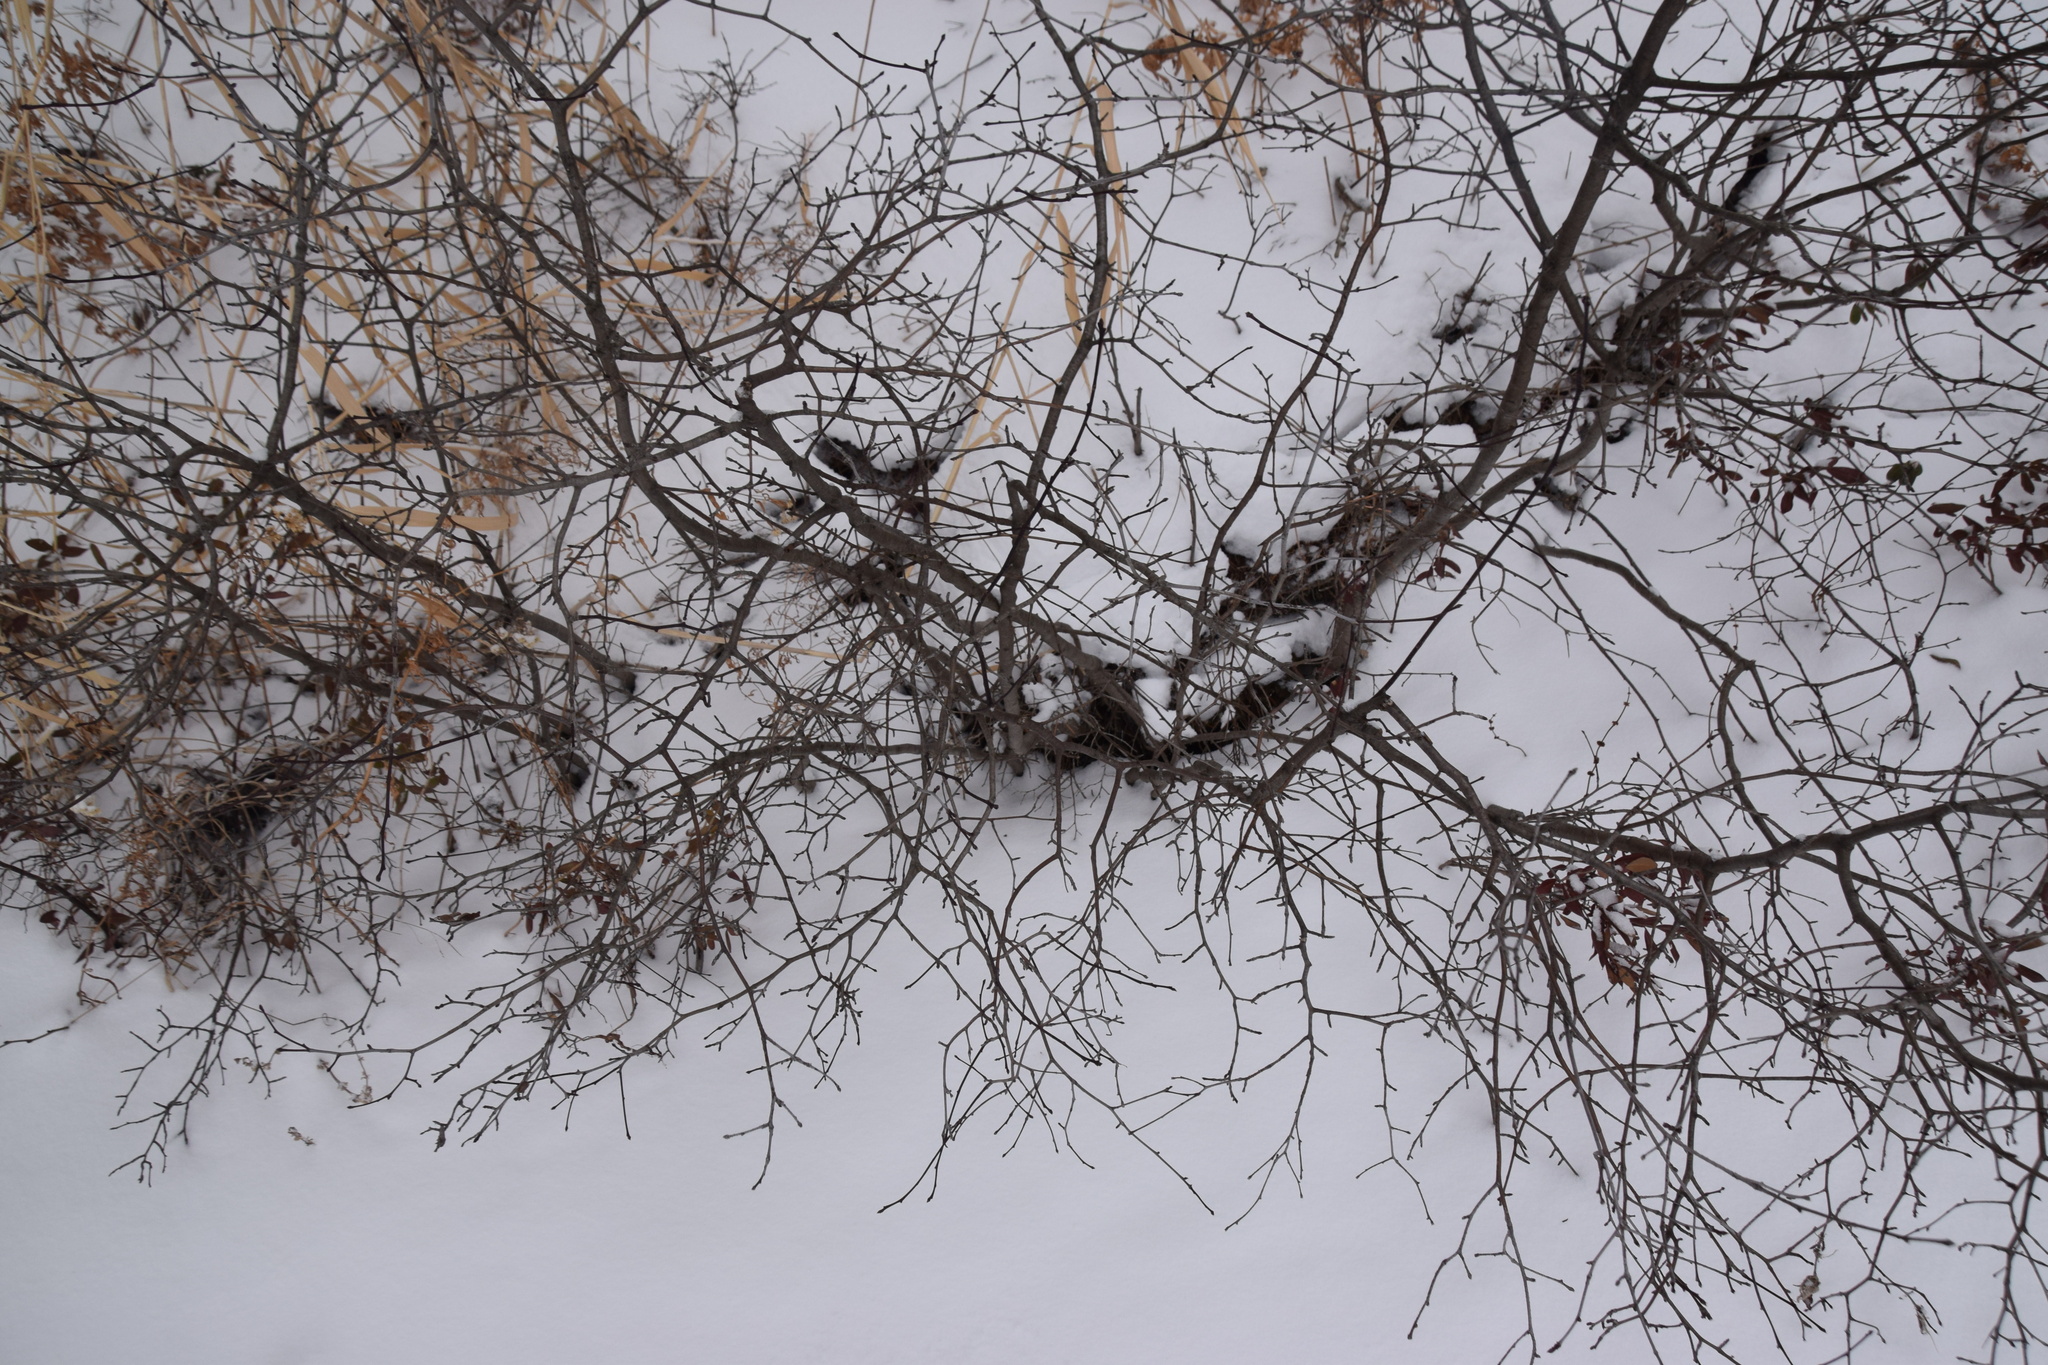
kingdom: Plantae
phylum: Tracheophyta
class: Magnoliopsida
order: Aquifoliales
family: Aquifoliaceae
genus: Ilex
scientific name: Ilex mucronata
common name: Catberry
